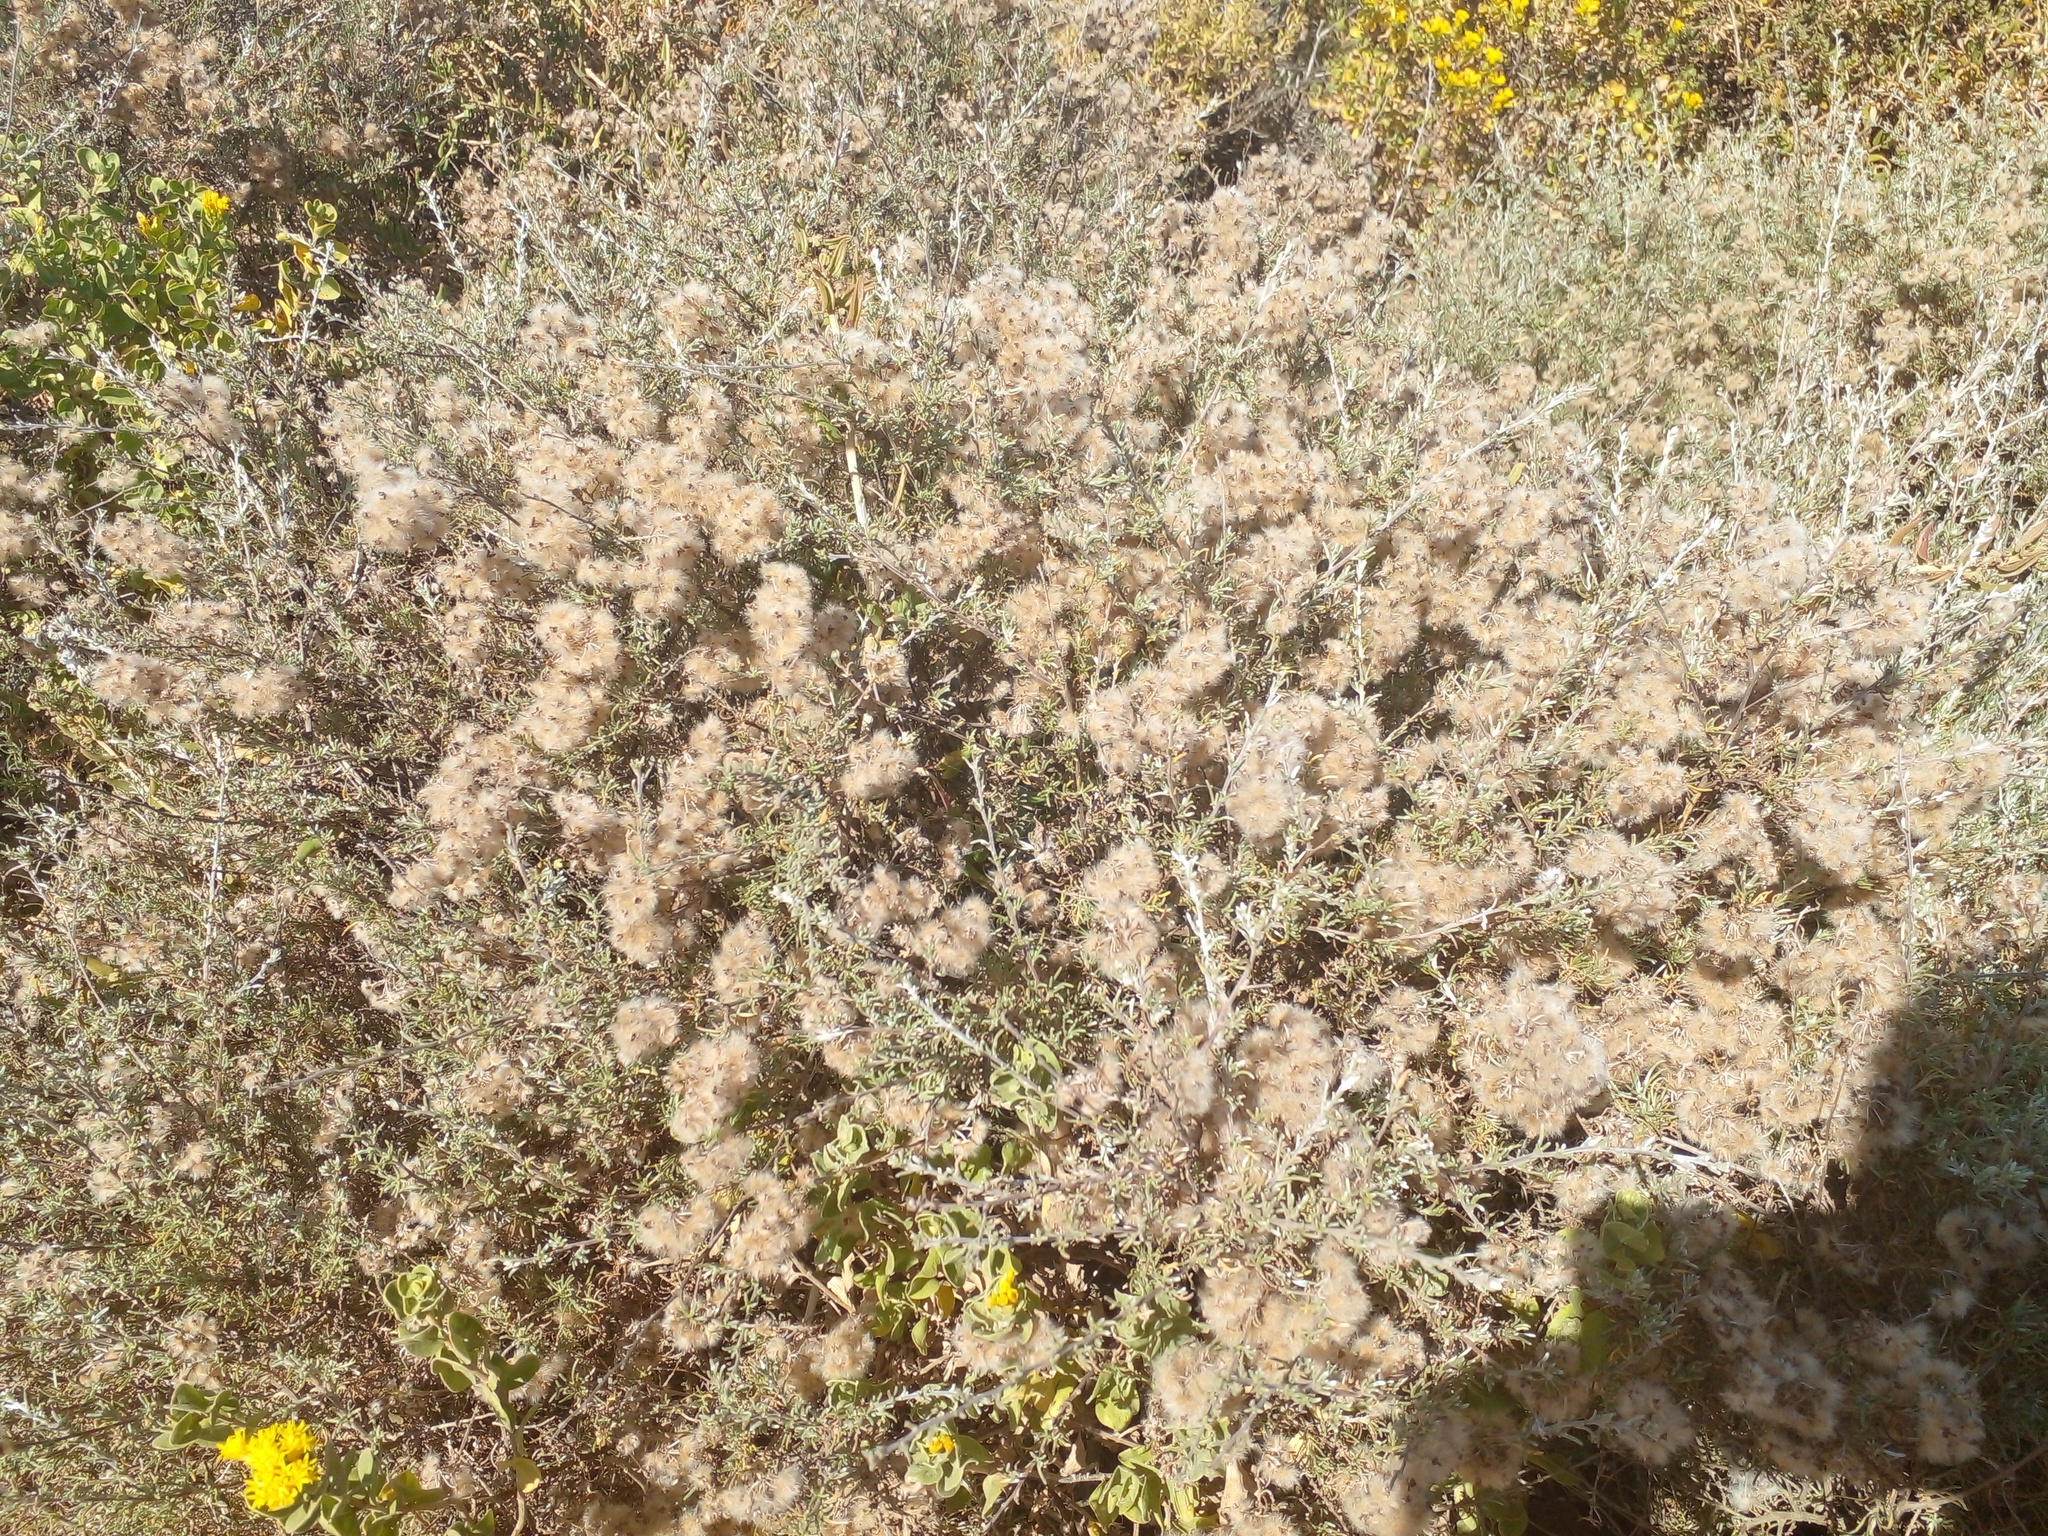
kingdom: Plantae
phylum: Tracheophyta
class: Magnoliopsida
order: Asterales
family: Asteraceae
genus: Eriocephalus
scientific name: Eriocephalus africanus
